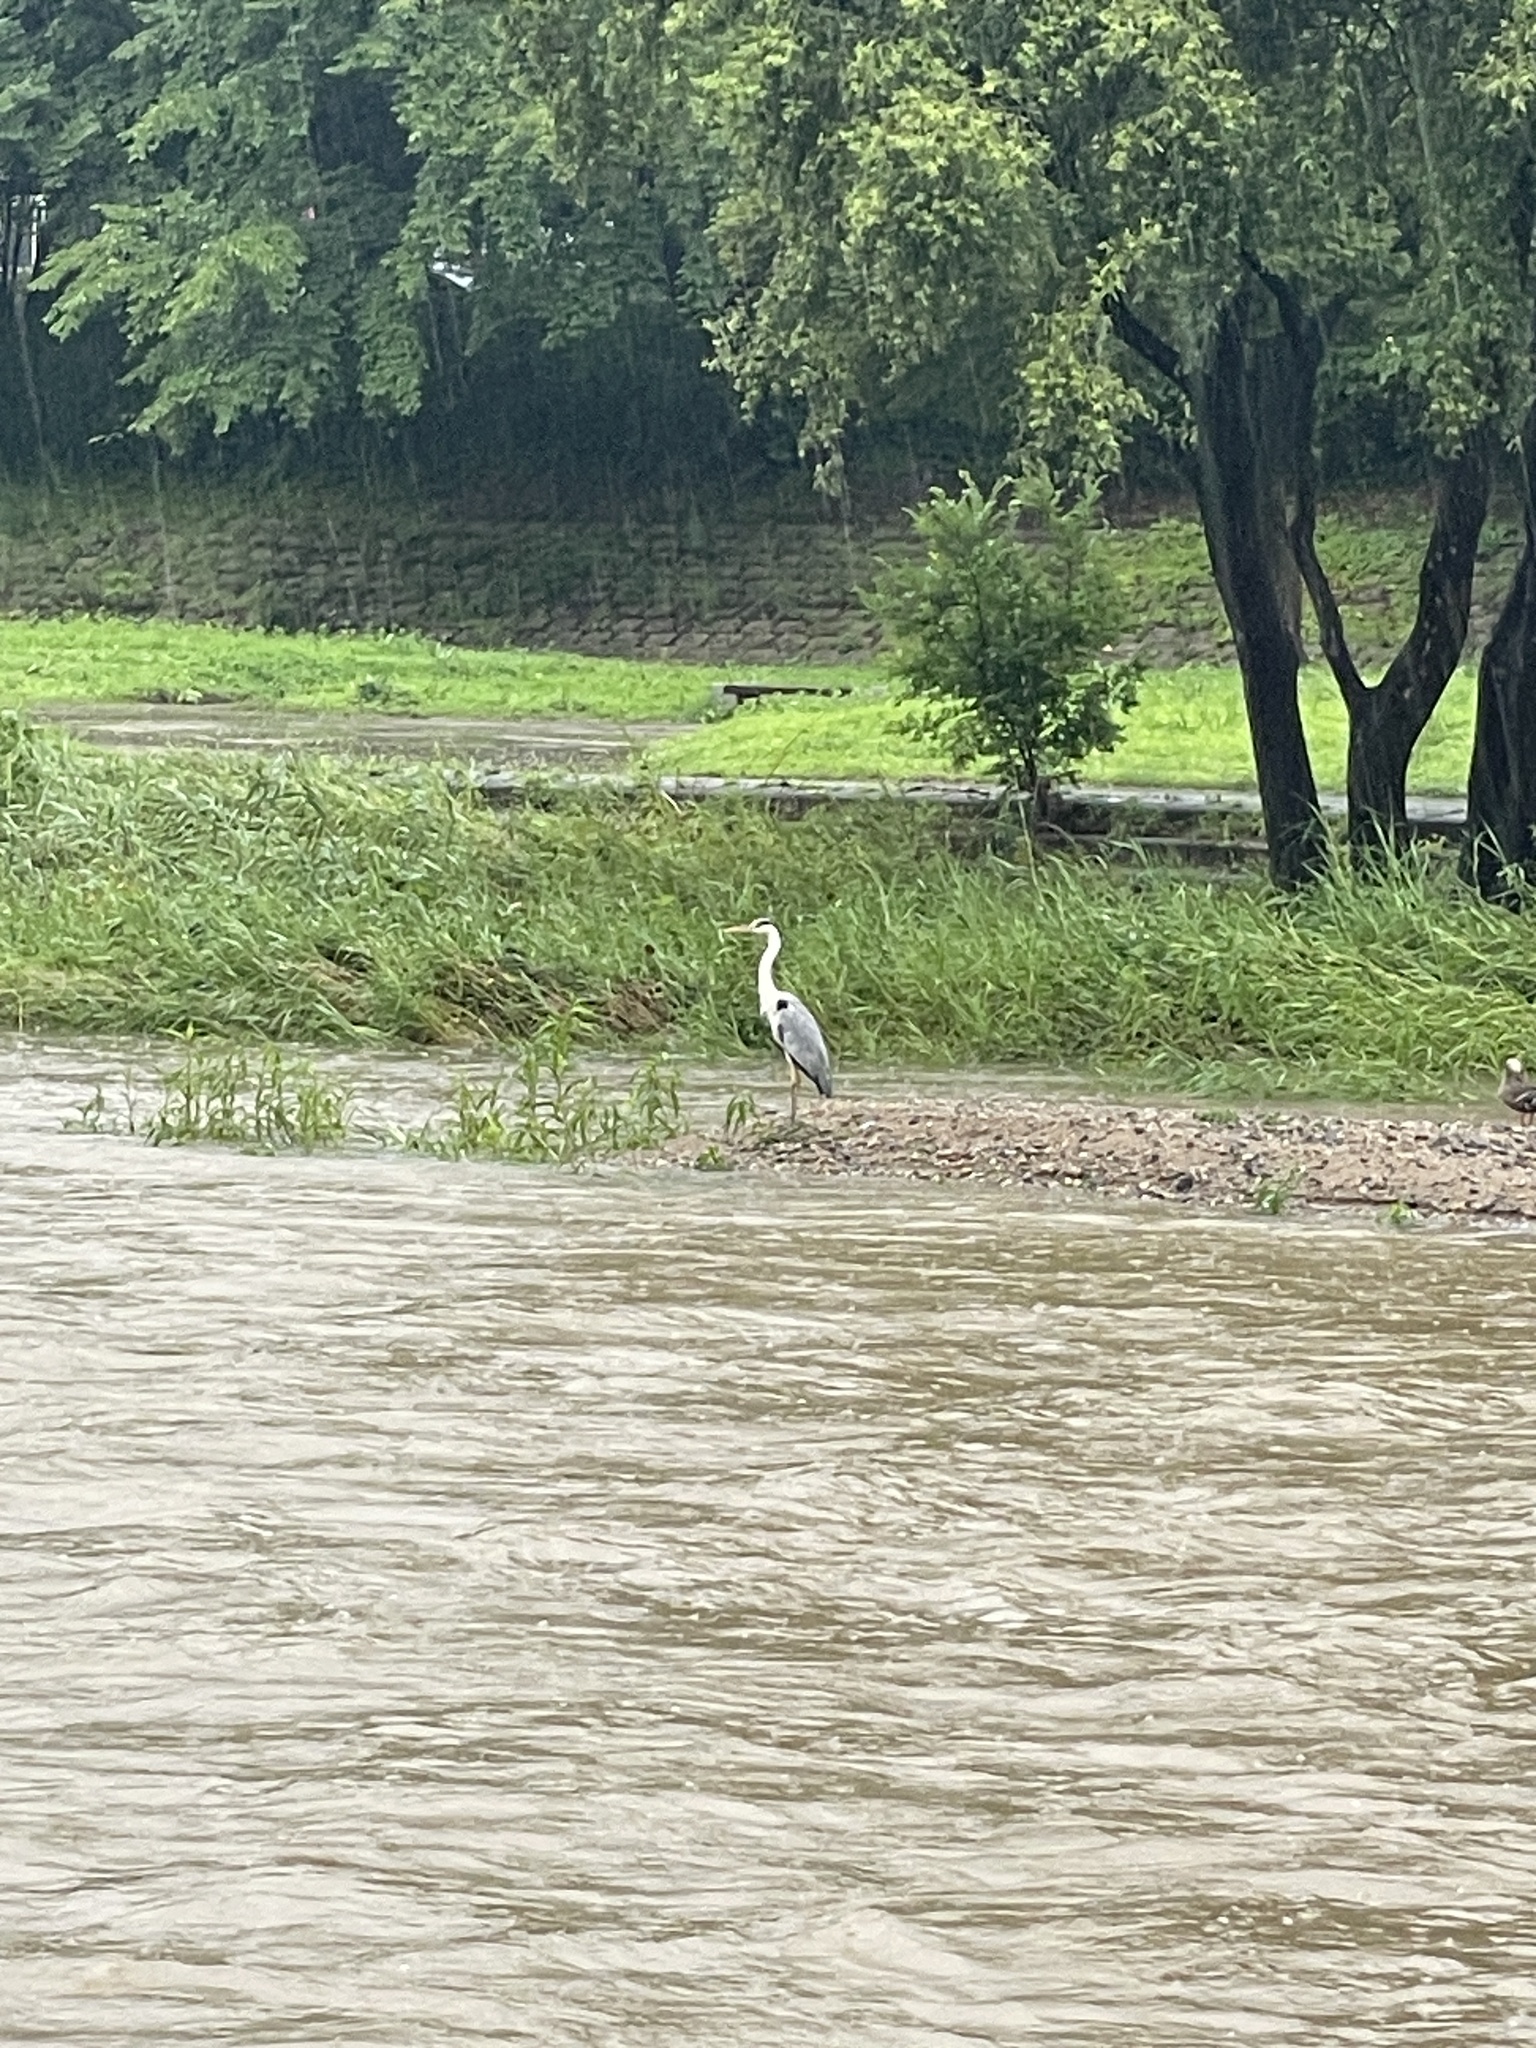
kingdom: Animalia
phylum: Chordata
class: Aves
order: Pelecaniformes
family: Ardeidae
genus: Ardea
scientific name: Ardea cinerea
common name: Grey heron
